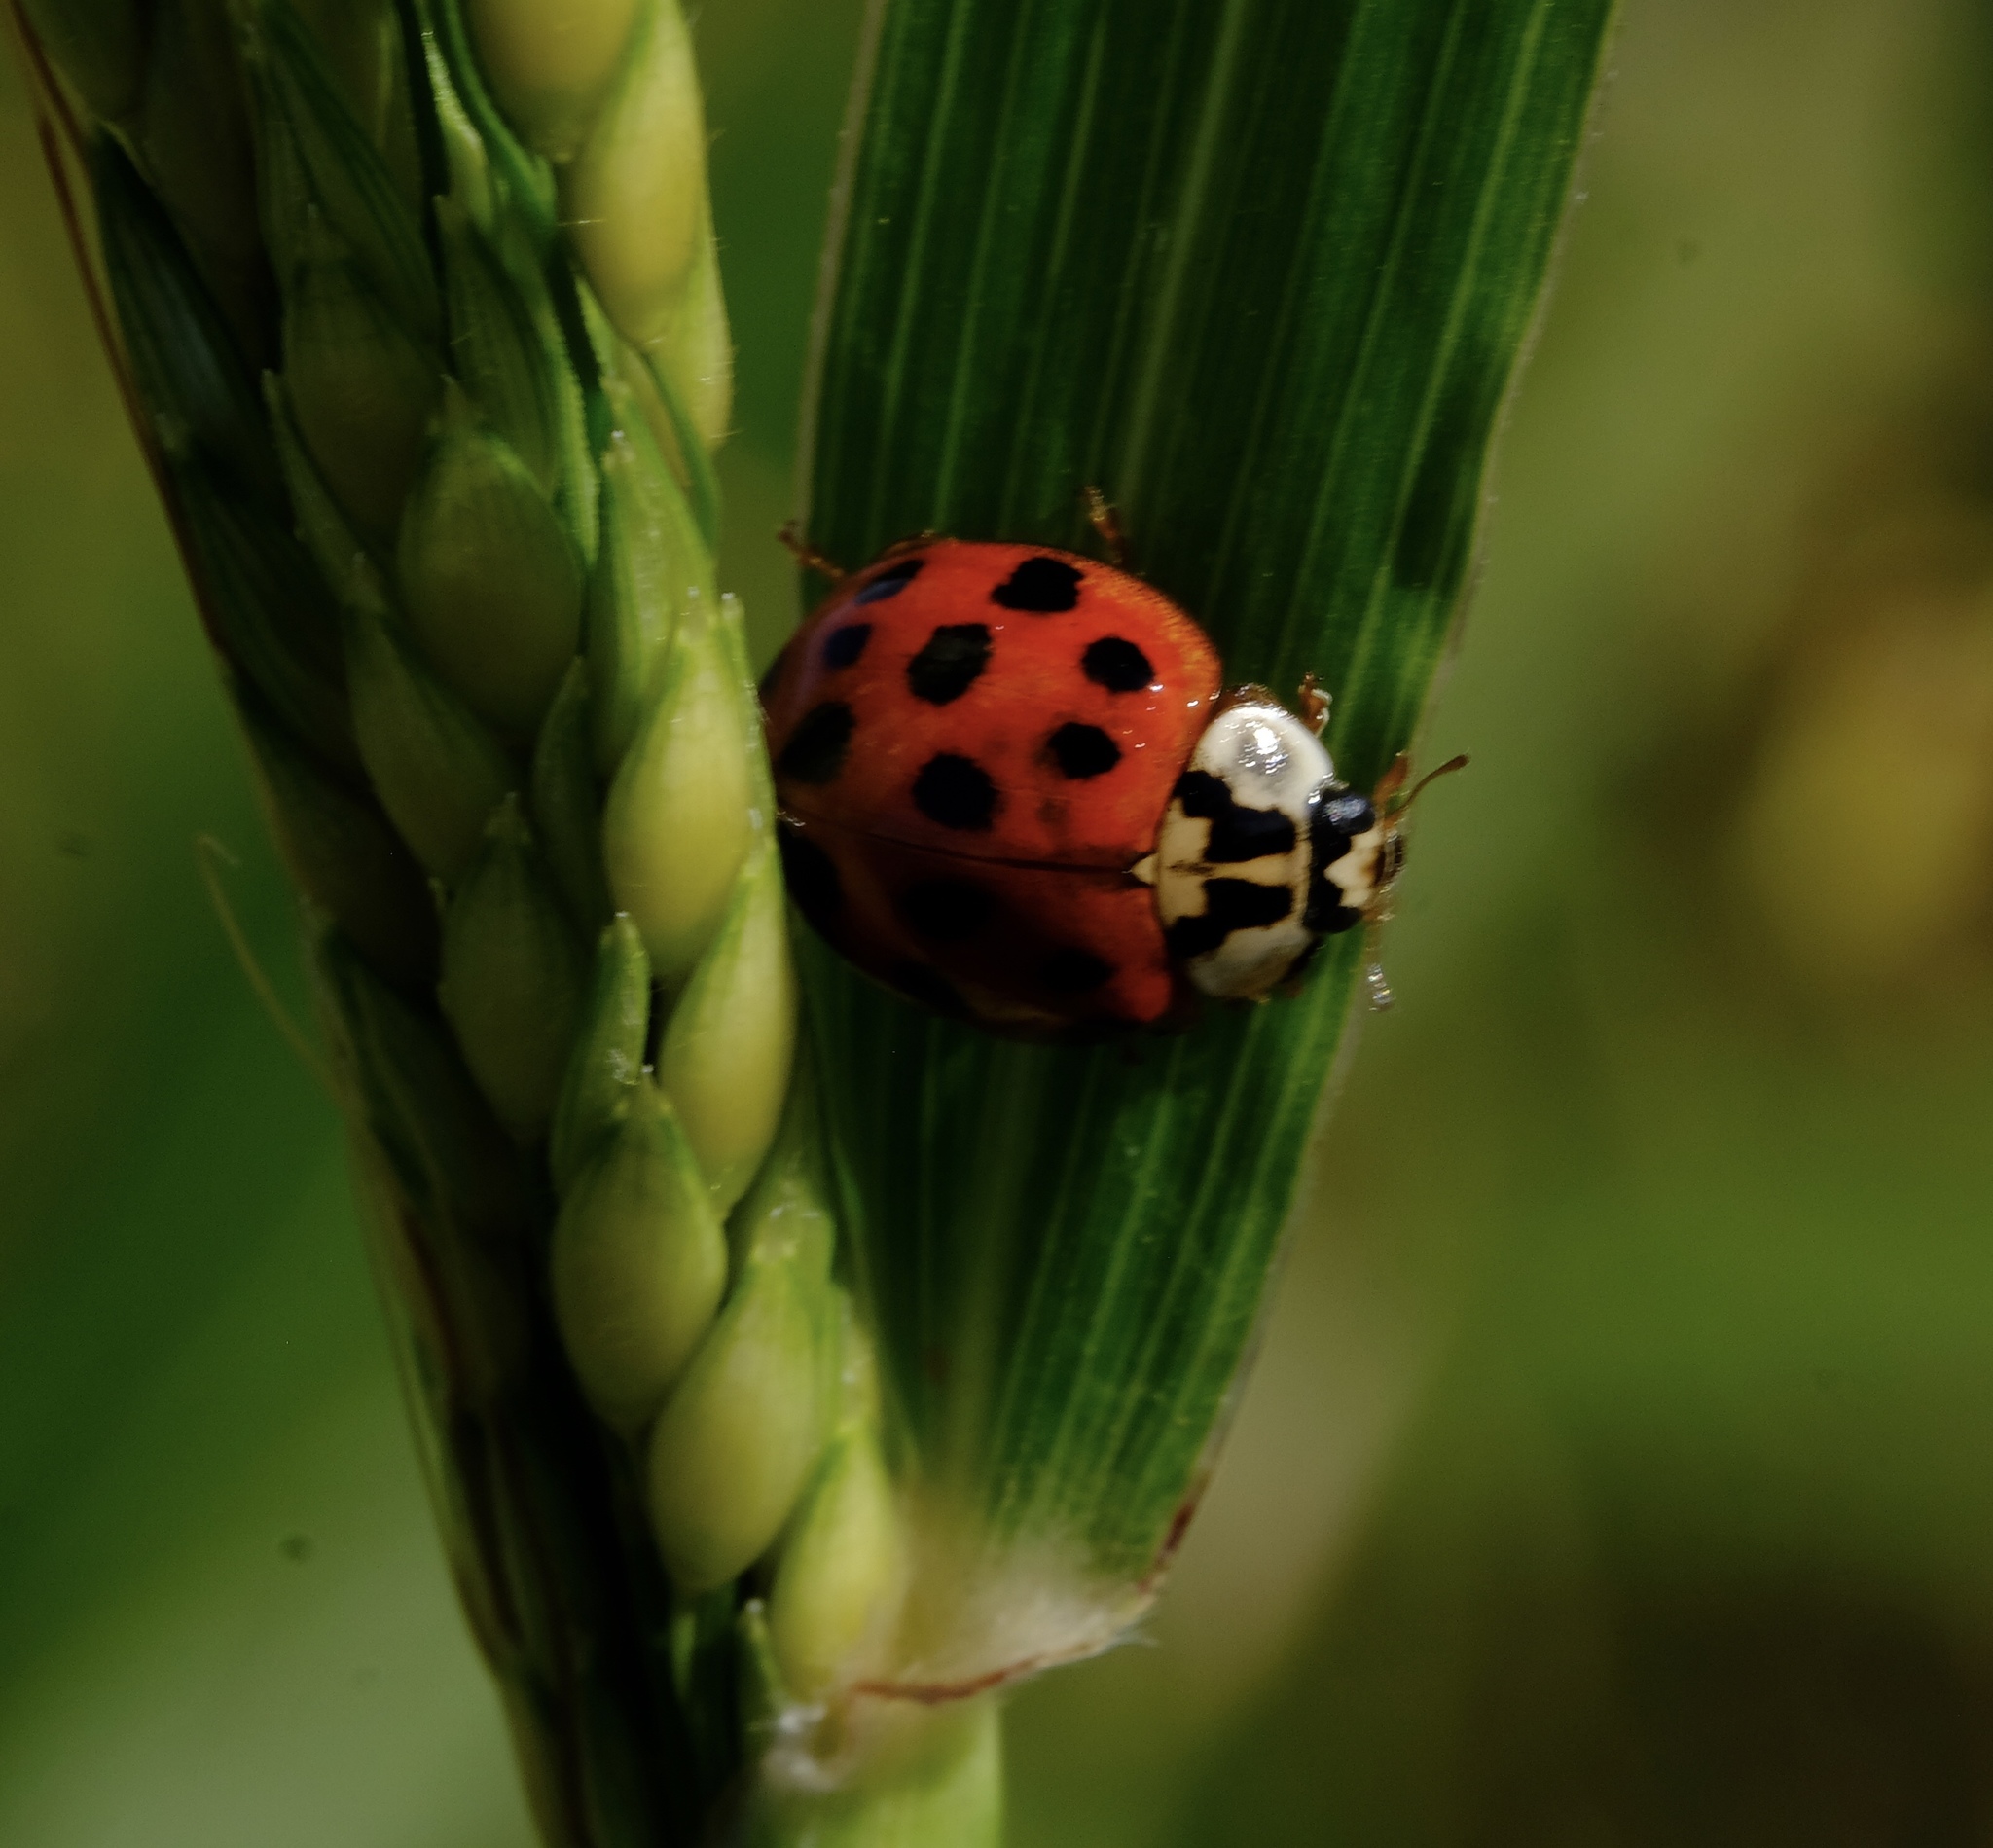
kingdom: Animalia
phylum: Arthropoda
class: Insecta
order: Coleoptera
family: Coccinellidae
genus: Harmonia
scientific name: Harmonia axyridis
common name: Harlequin ladybird
